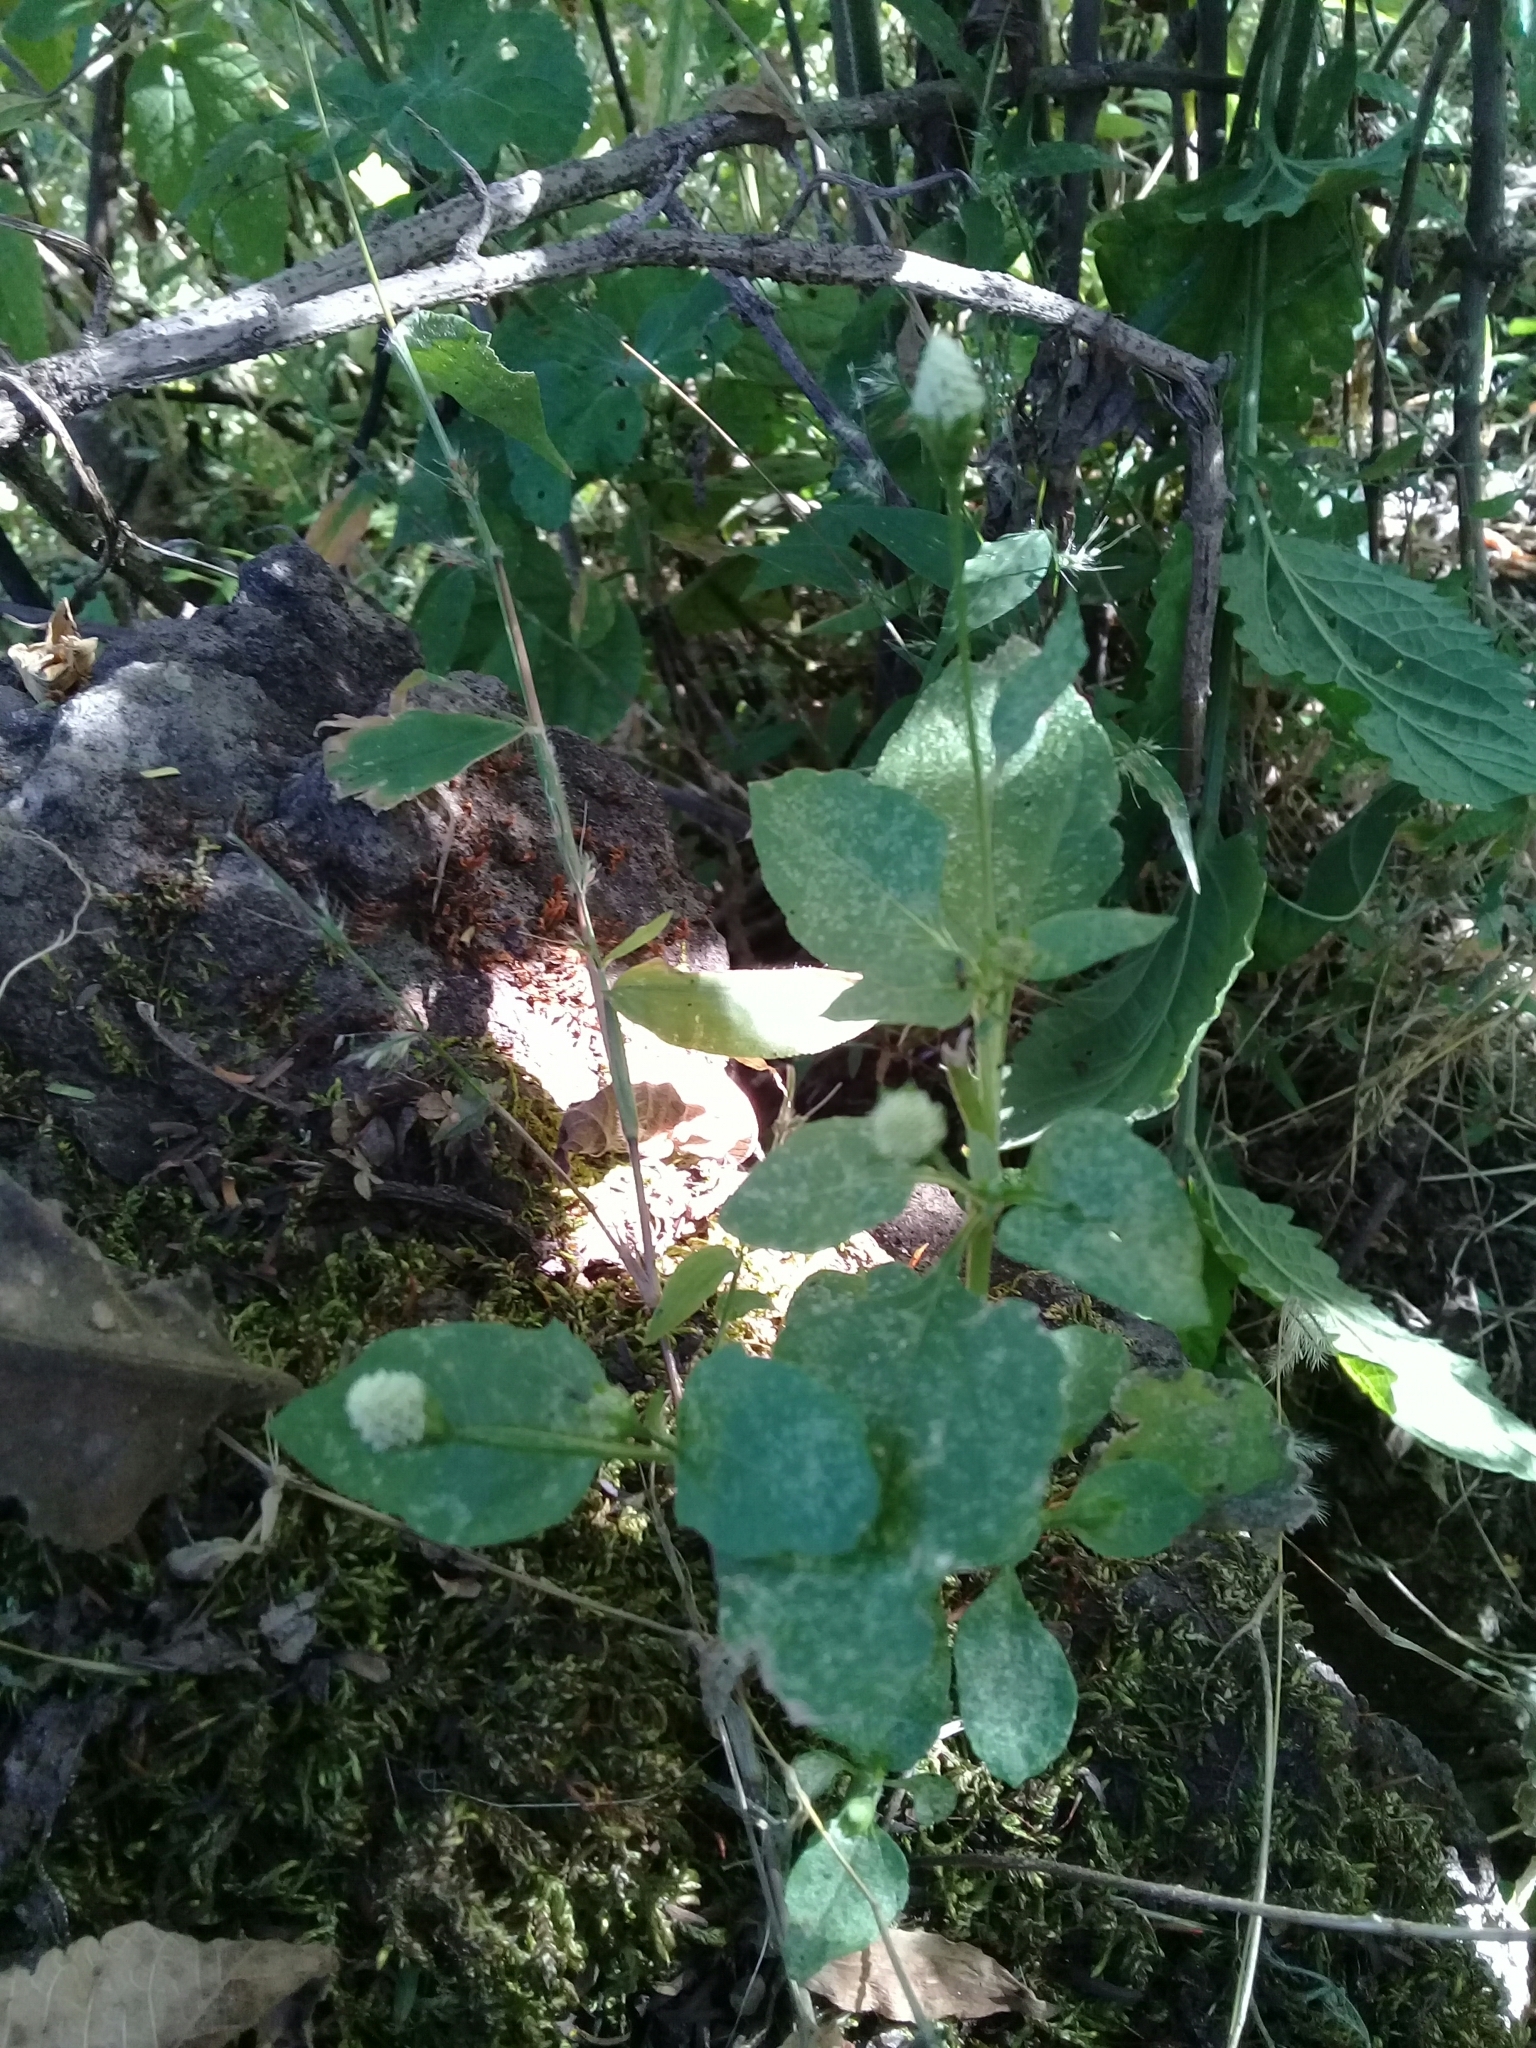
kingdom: Plantae
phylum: Tracheophyta
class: Magnoliopsida
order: Asterales
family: Asteraceae
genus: Acmella
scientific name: Acmella radicans
